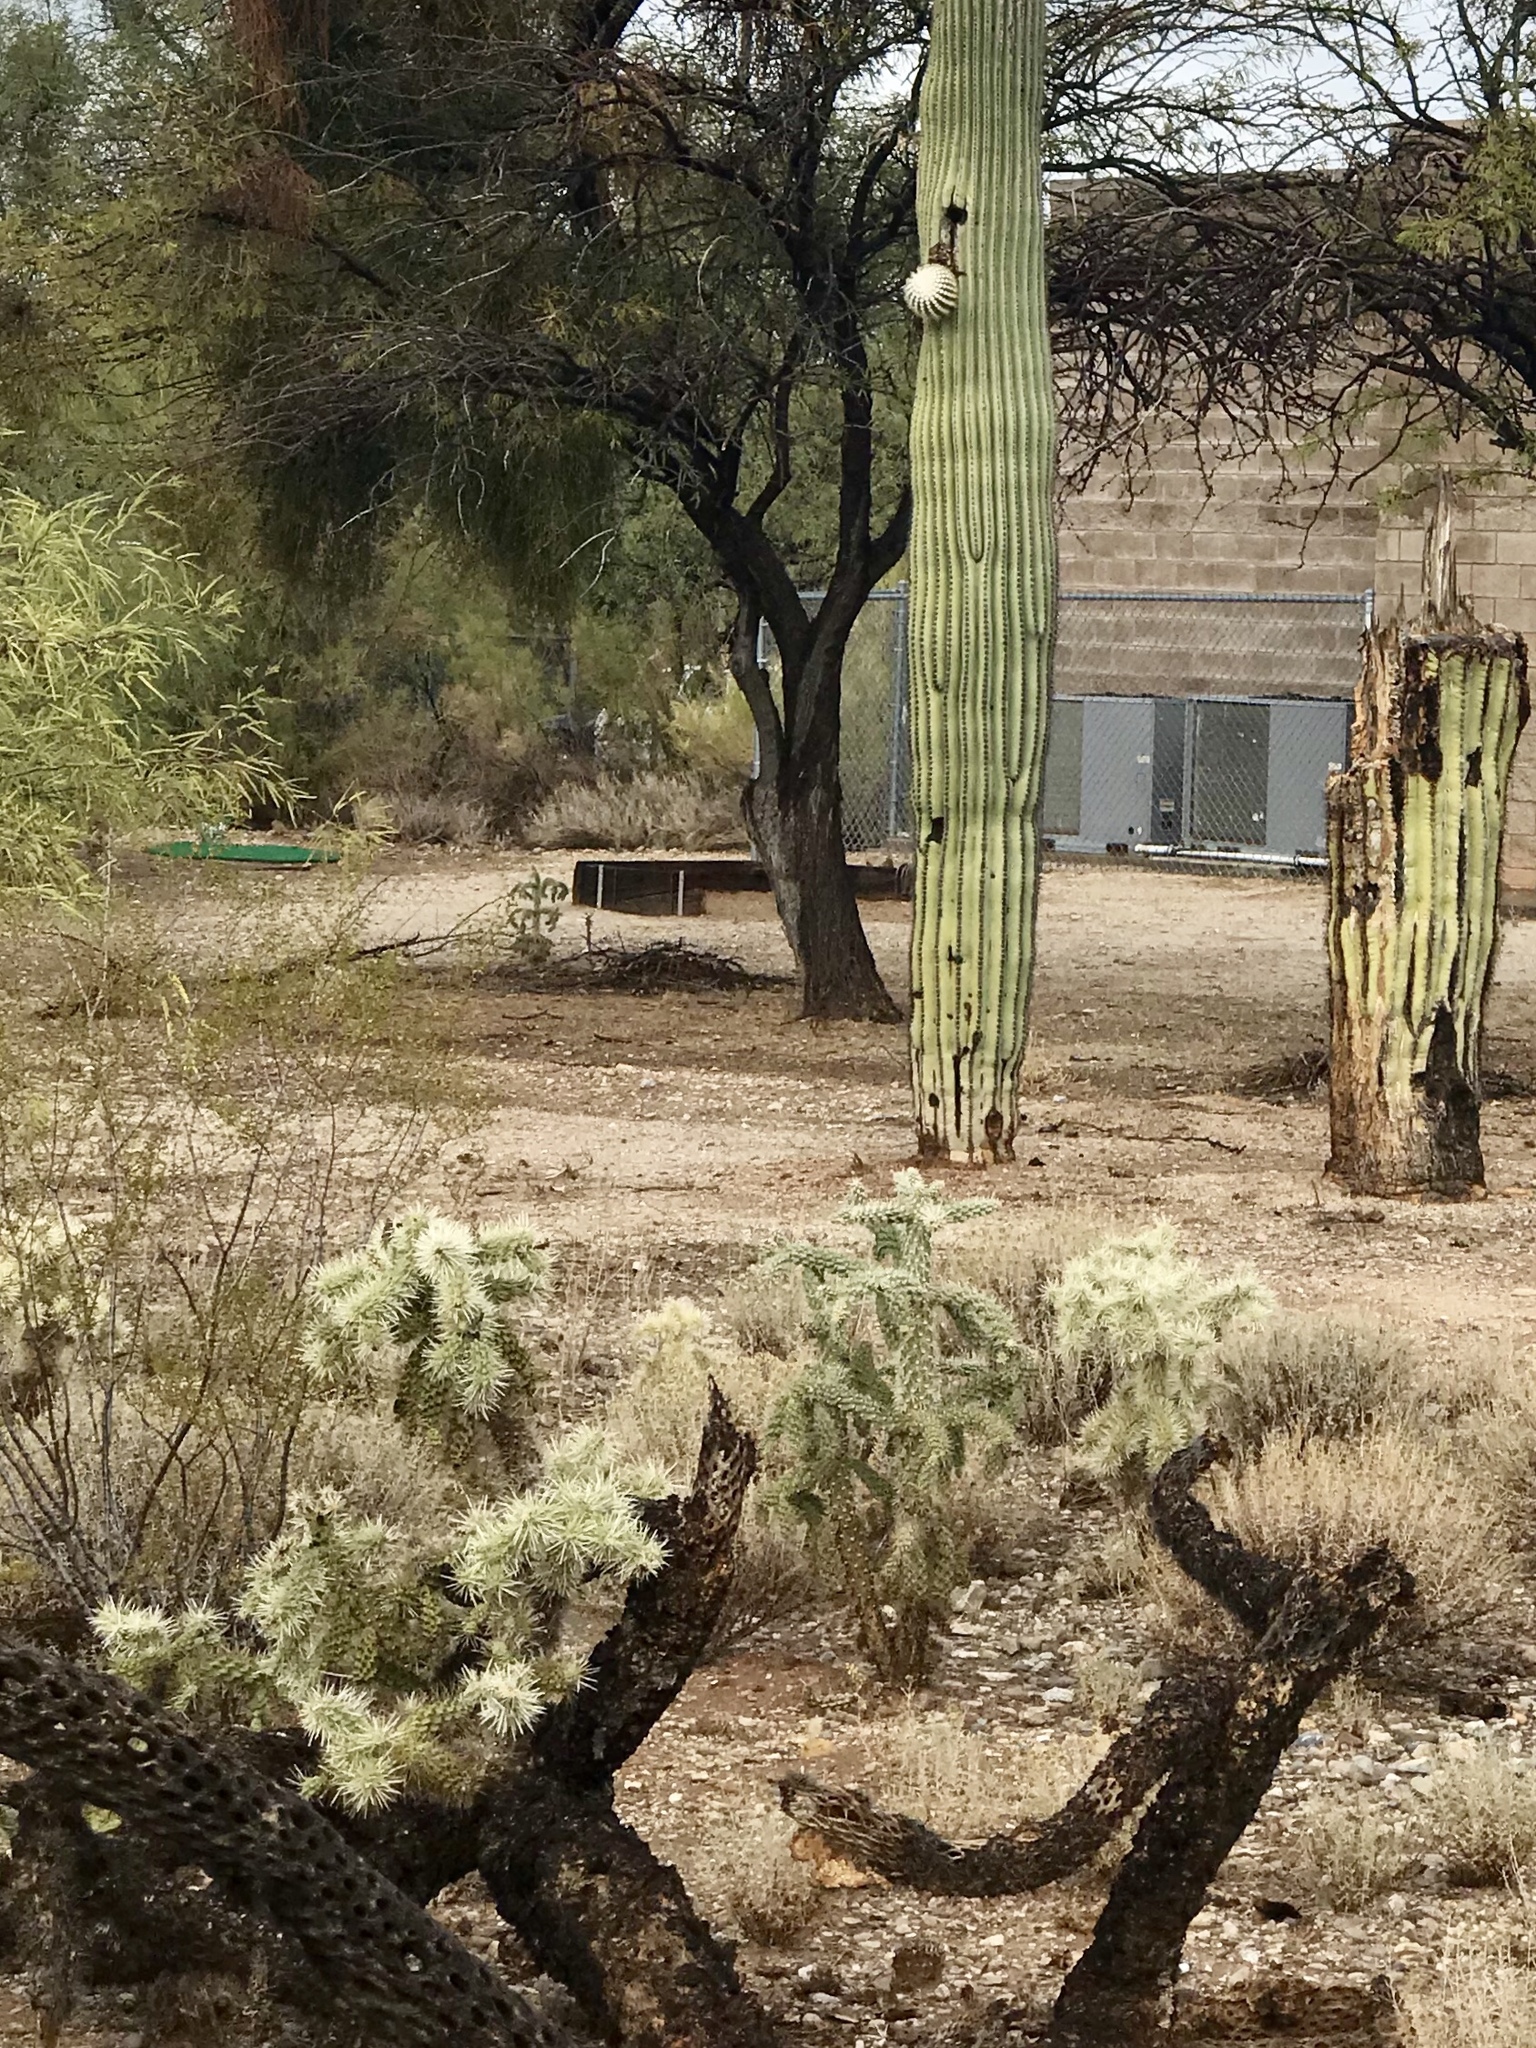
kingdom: Plantae
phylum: Tracheophyta
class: Magnoliopsida
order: Caryophyllales
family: Cactaceae
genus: Cylindropuntia
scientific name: Cylindropuntia fulgida
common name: Jumping cholla
